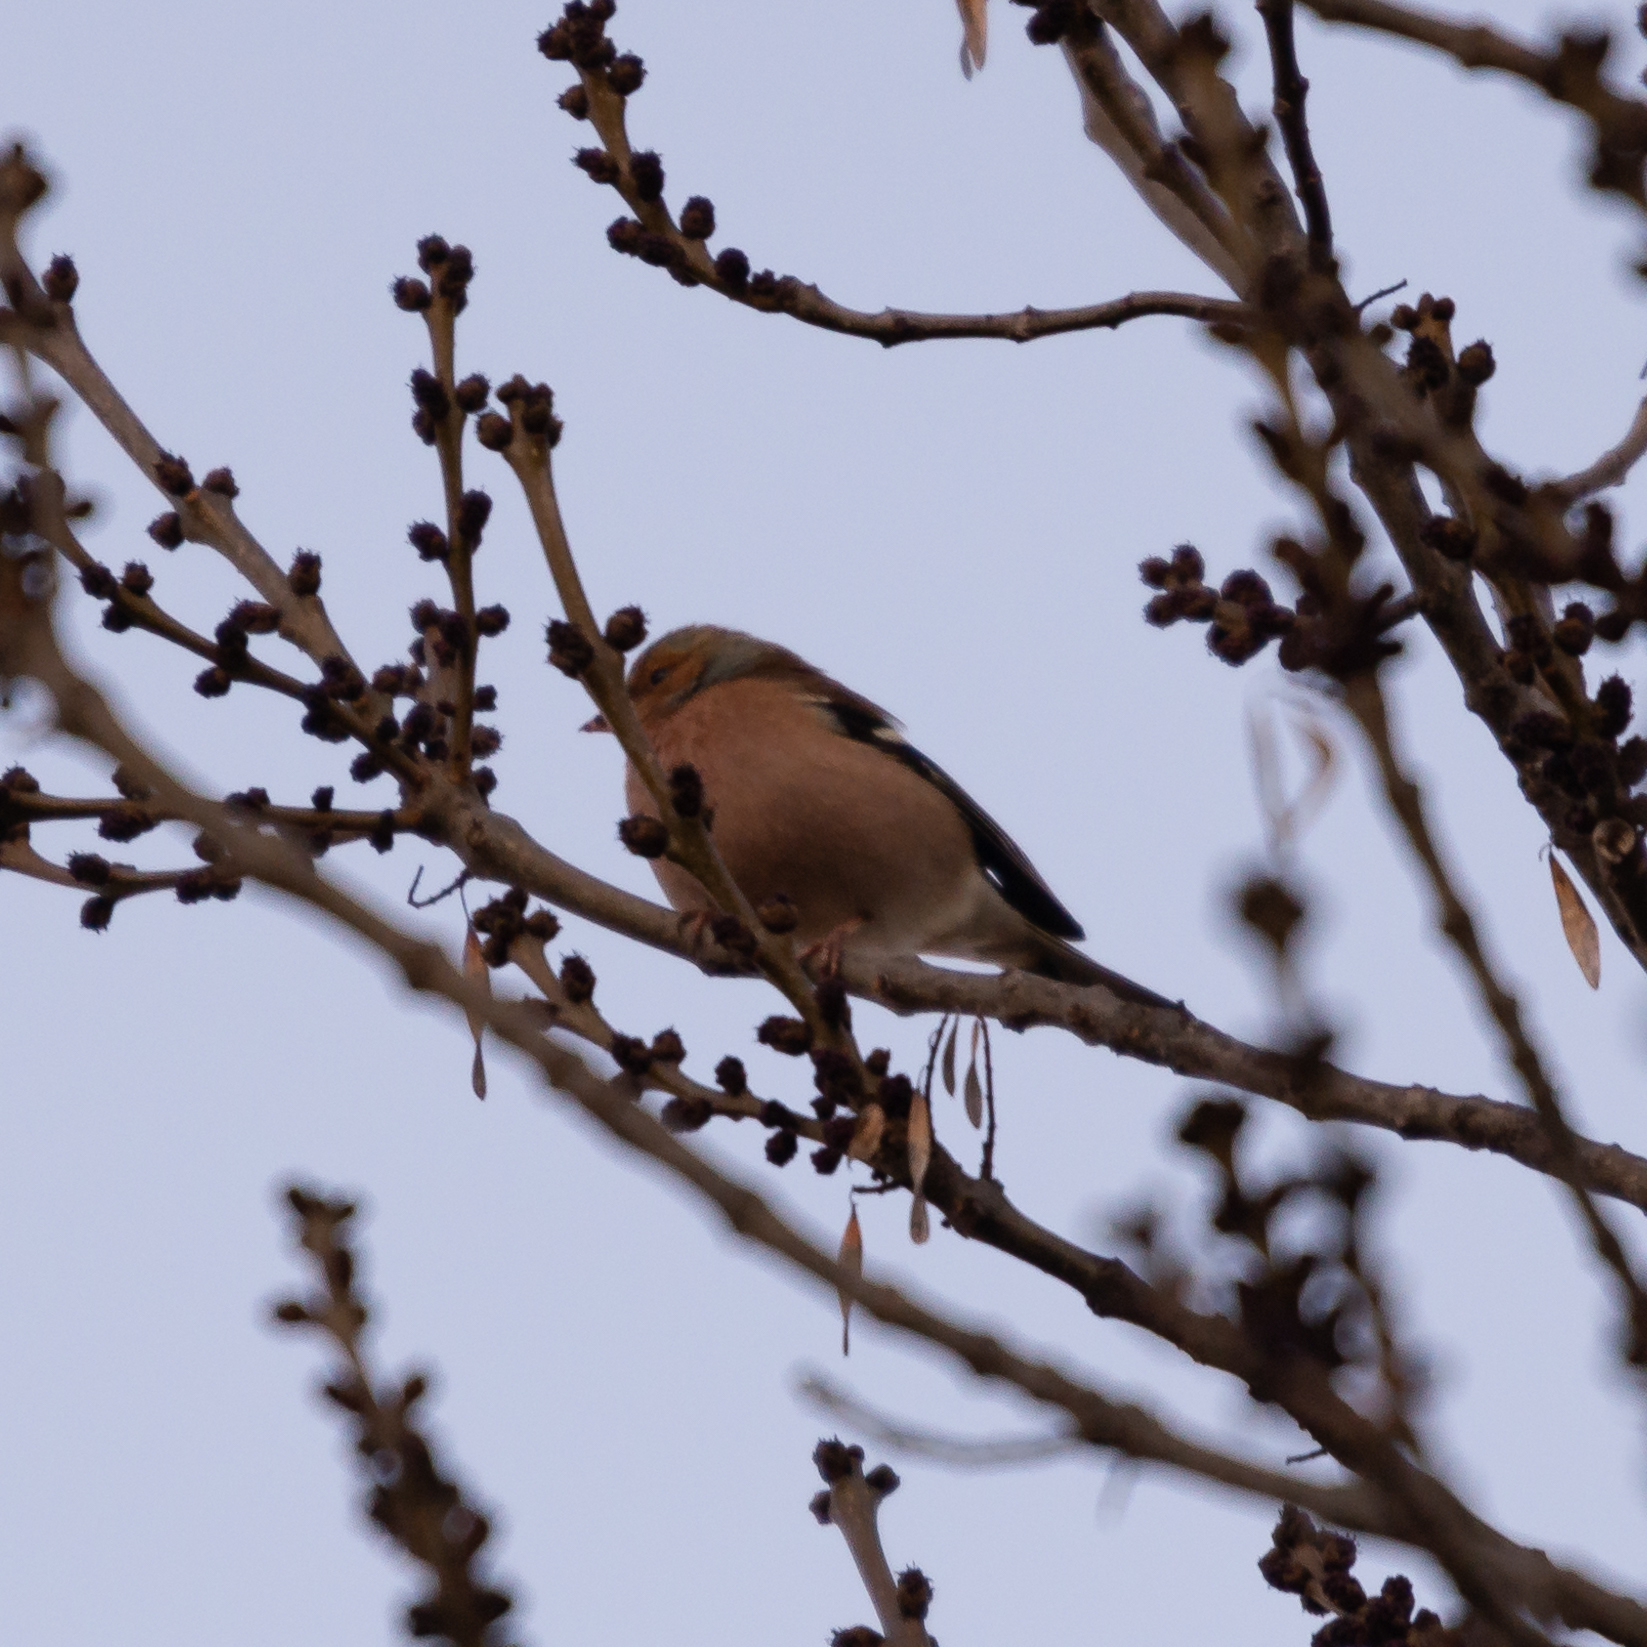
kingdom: Animalia
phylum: Chordata
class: Aves
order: Passeriformes
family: Fringillidae
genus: Fringilla
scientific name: Fringilla coelebs
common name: Common chaffinch
